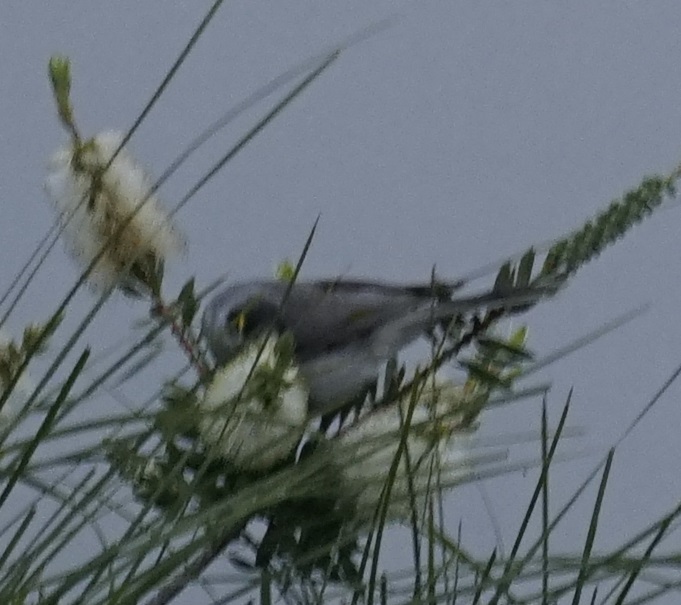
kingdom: Animalia
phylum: Chordata
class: Aves
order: Passeriformes
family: Meliphagidae
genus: Manorina
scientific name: Manorina melanocephala
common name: Noisy miner
